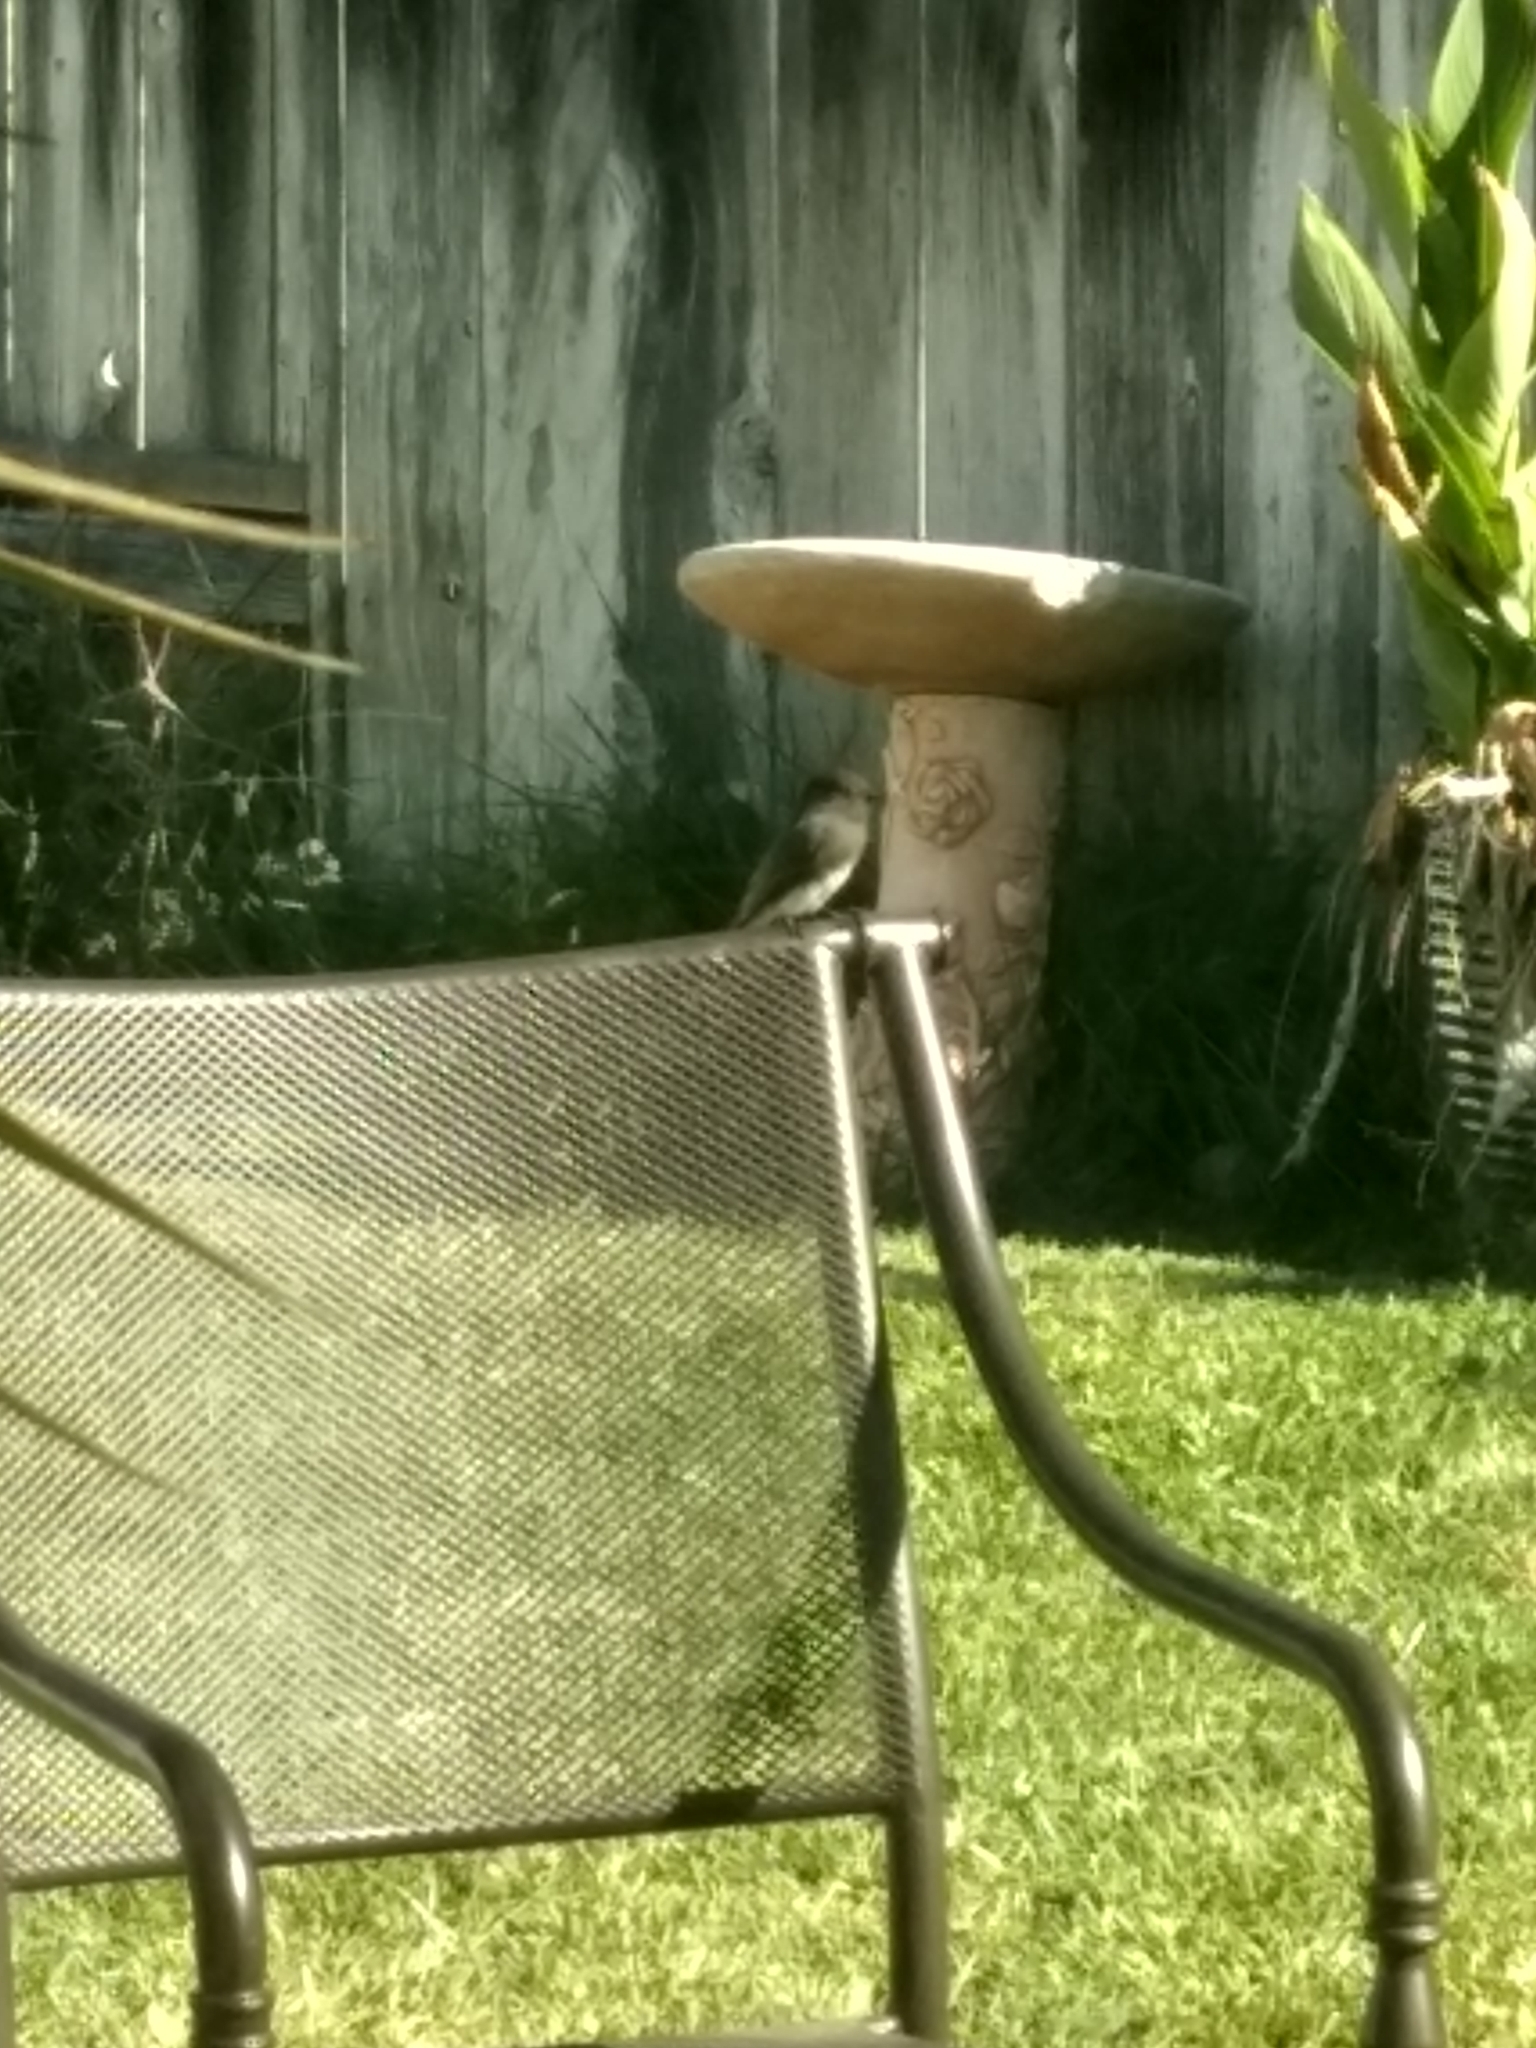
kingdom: Animalia
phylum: Chordata
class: Aves
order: Passeriformes
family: Tyrannidae
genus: Sayornis
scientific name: Sayornis nigricans
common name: Black phoebe
